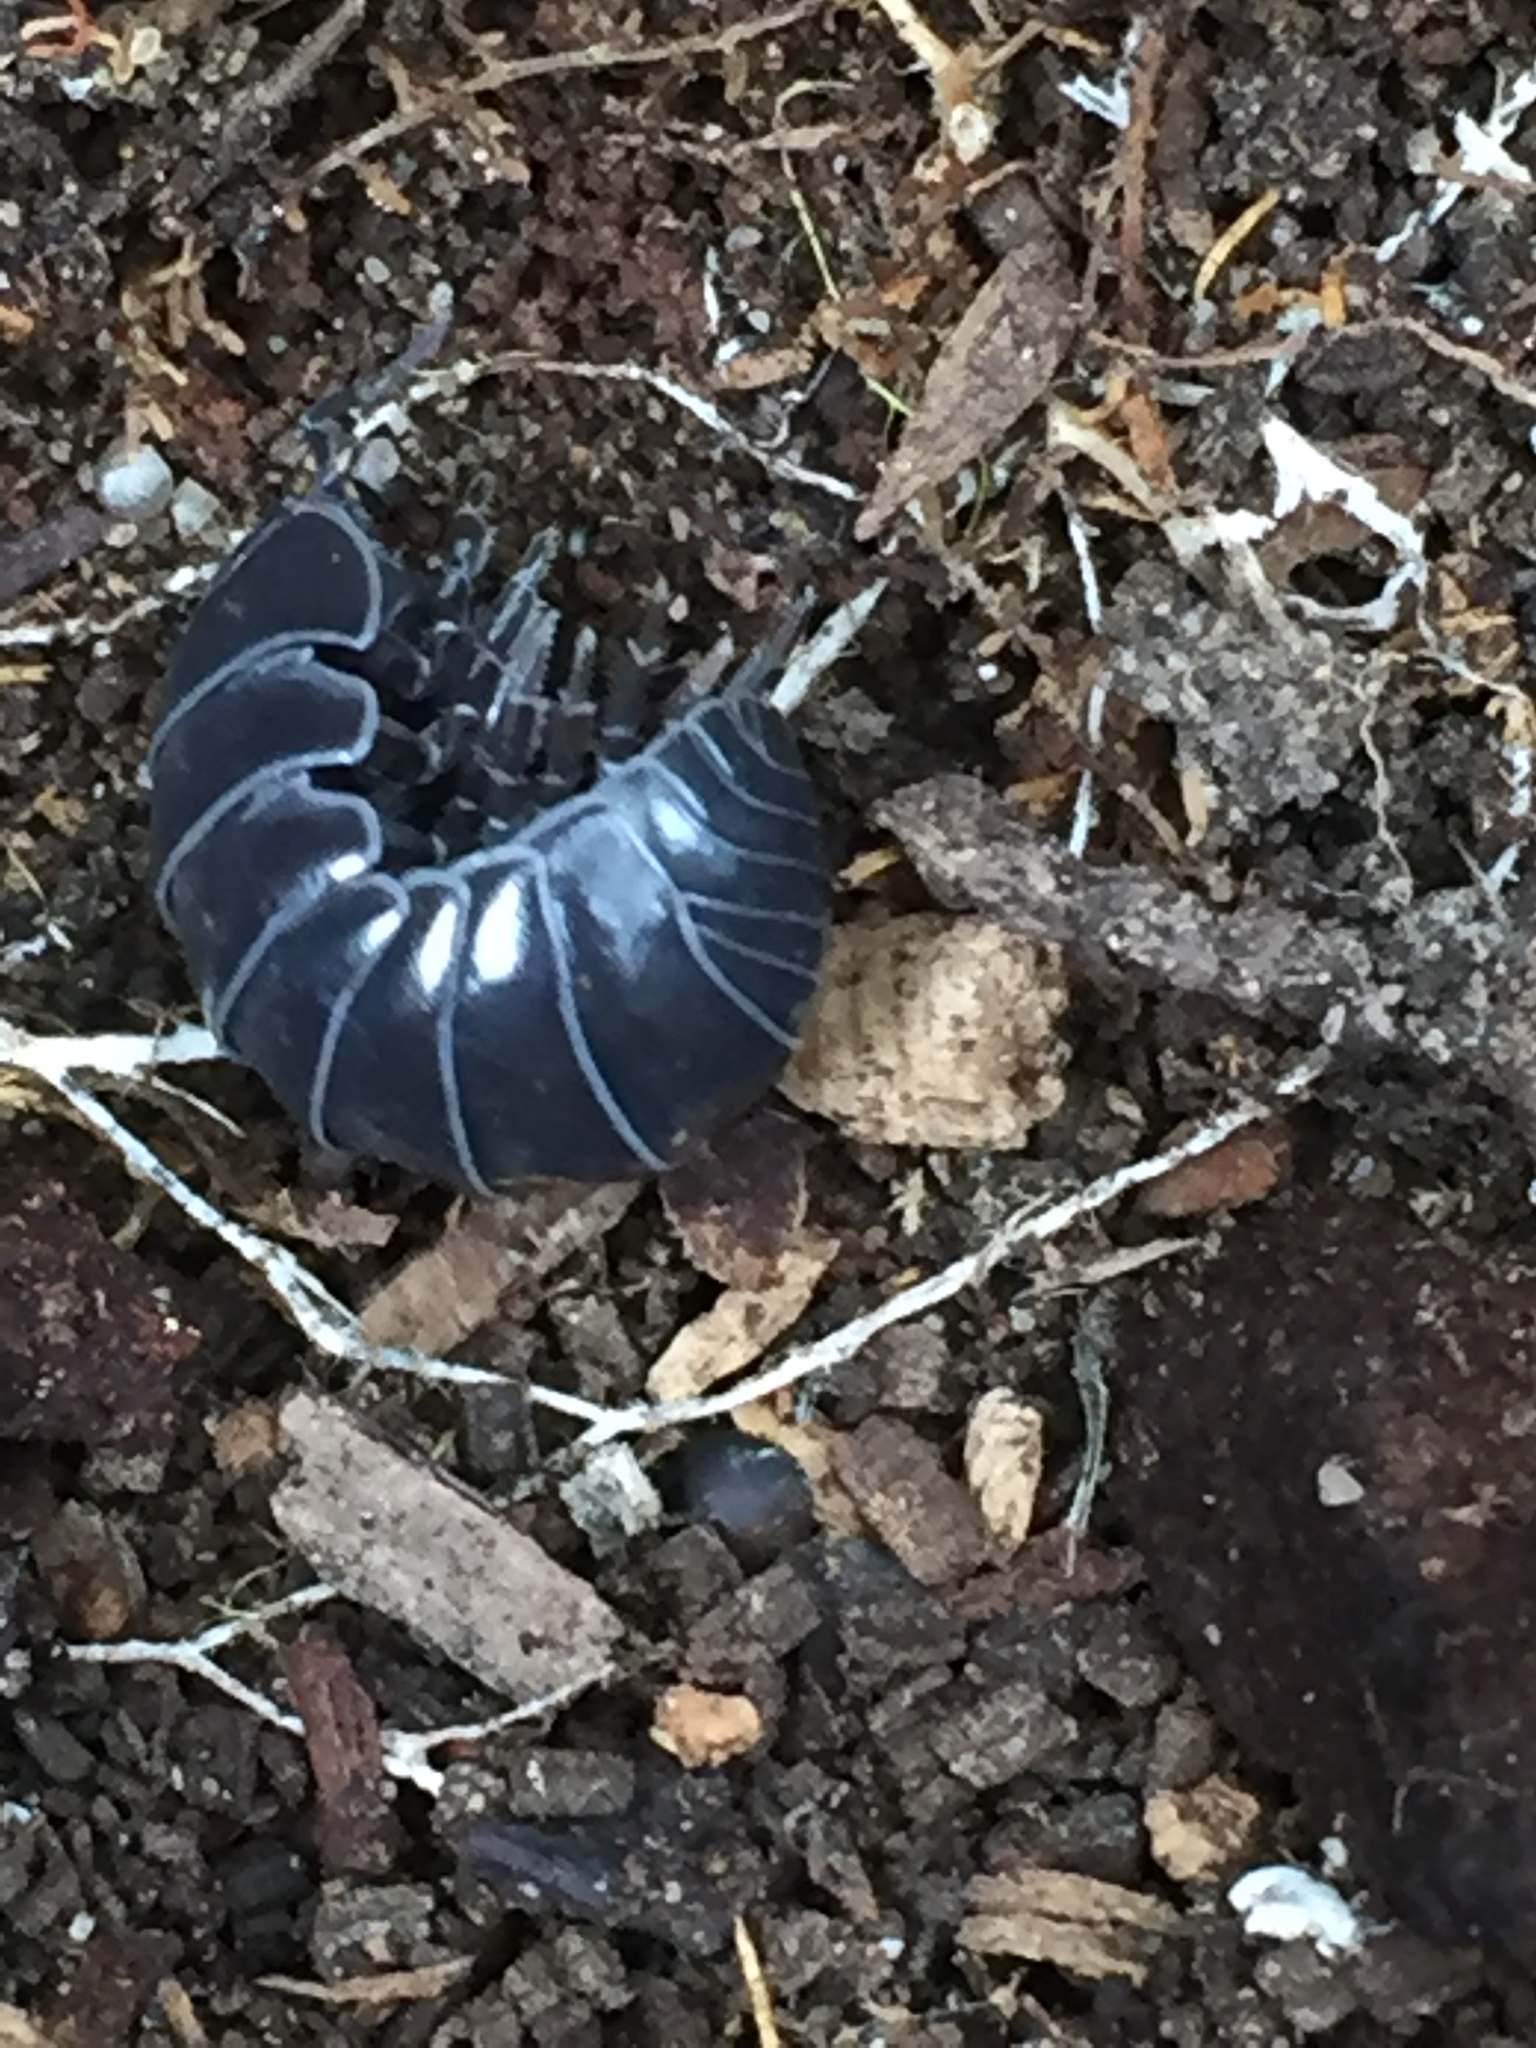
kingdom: Animalia
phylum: Arthropoda
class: Malacostraca
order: Isopoda
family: Armadillidiidae
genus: Armadillidium
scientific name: Armadillidium vulgare
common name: Common pill woodlouse
